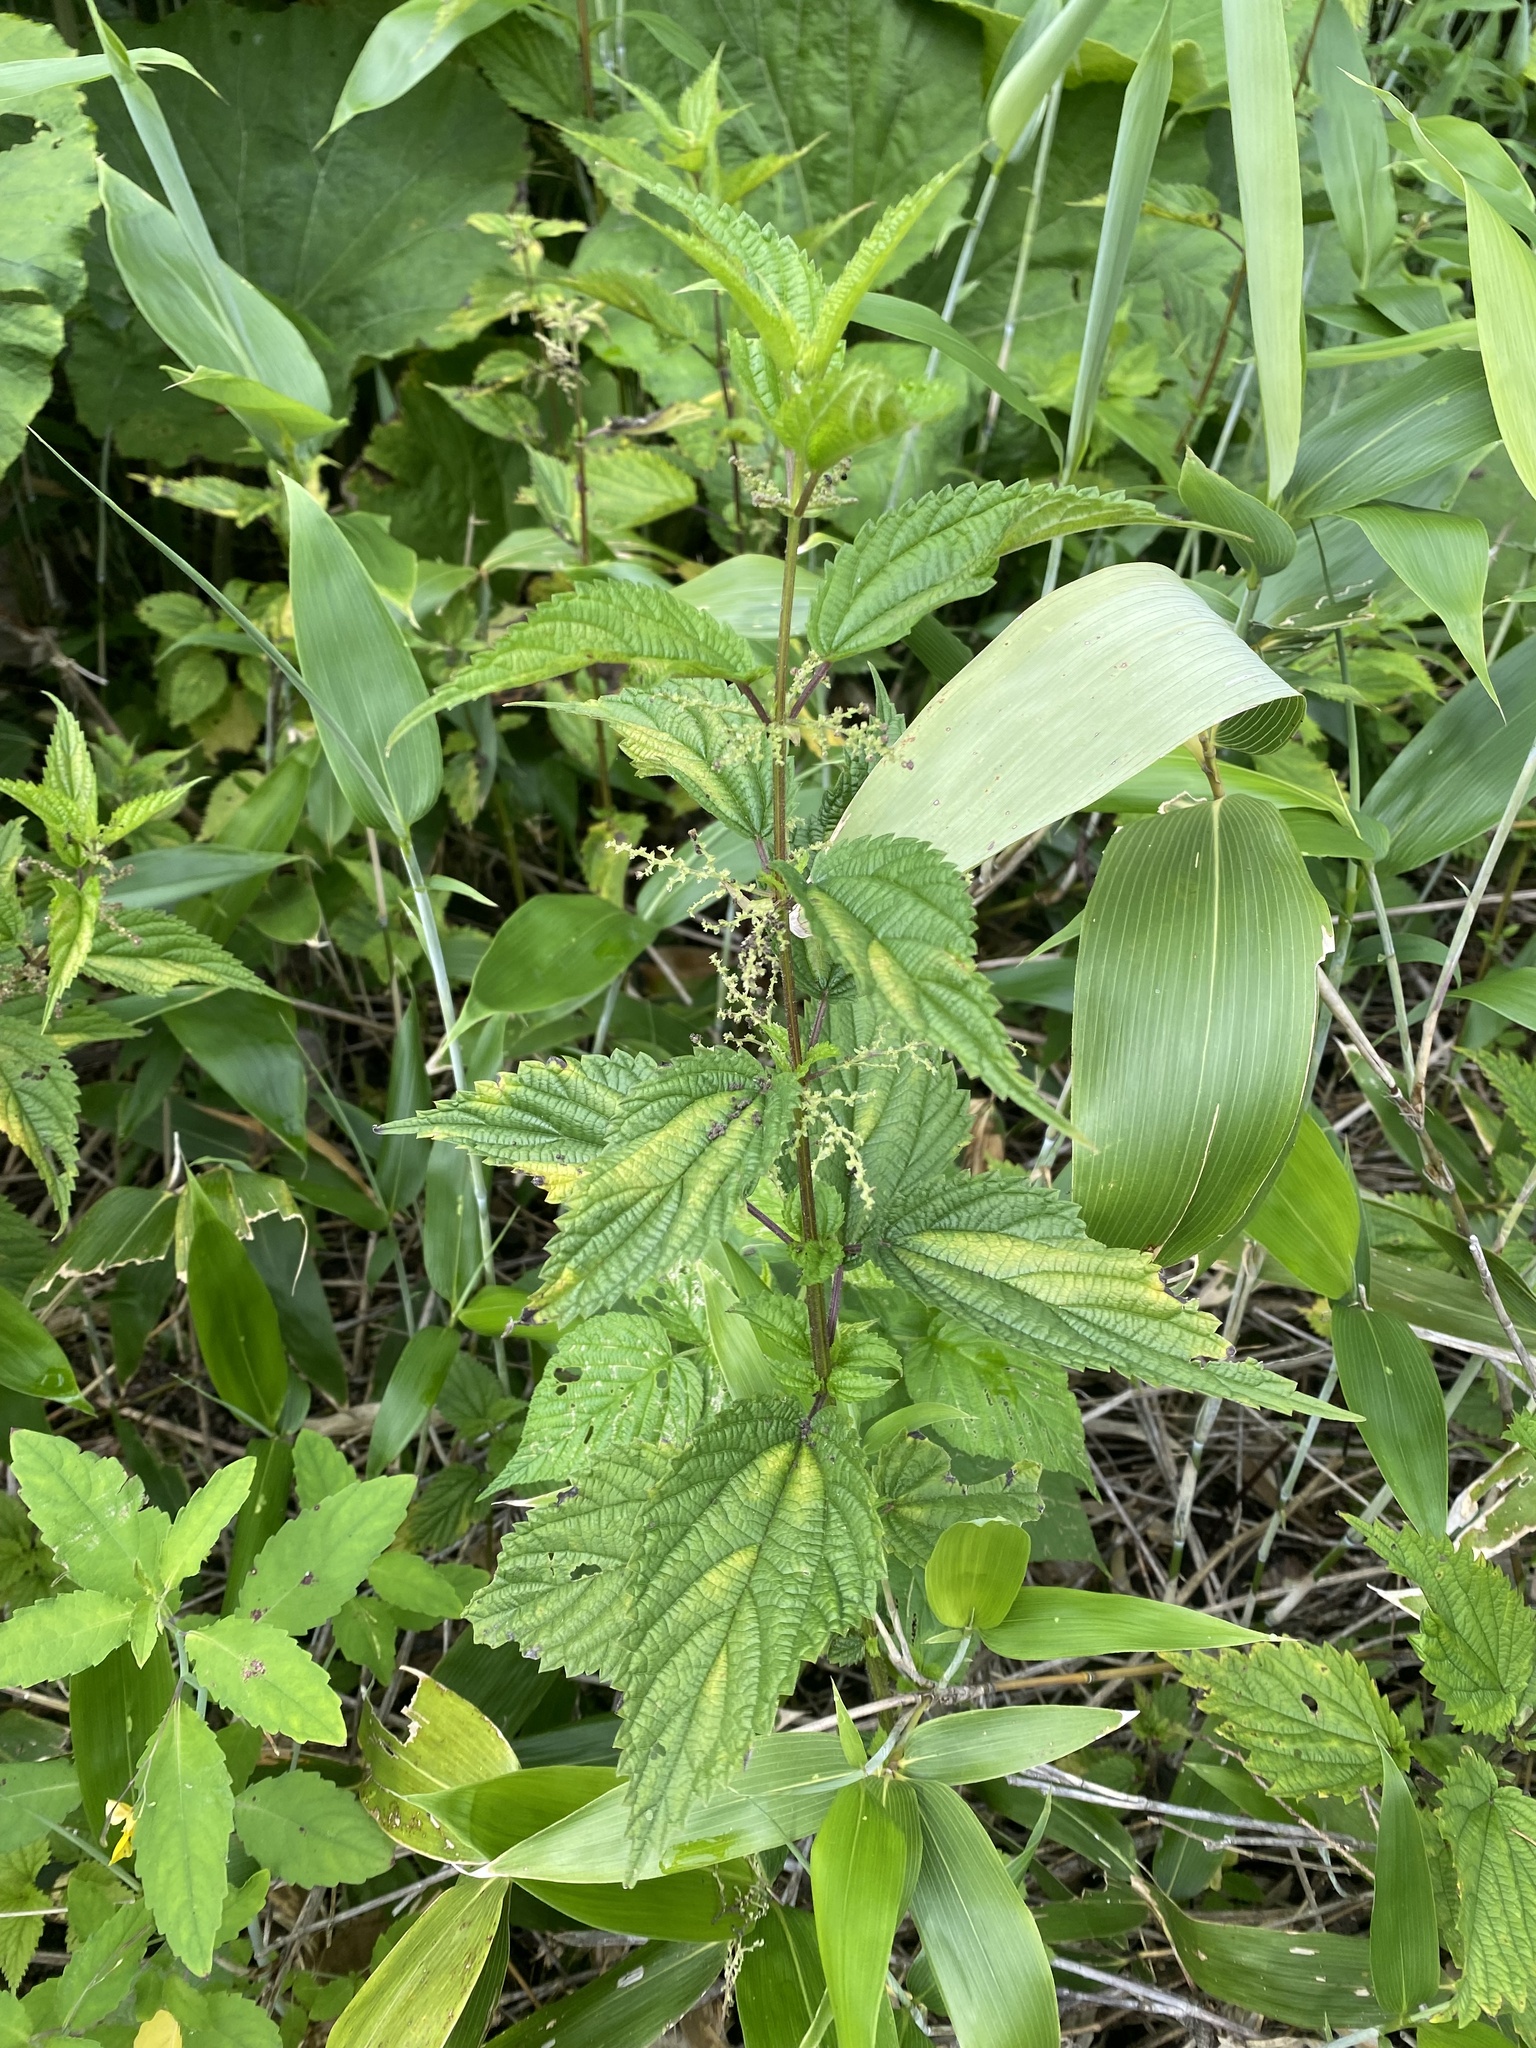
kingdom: Plantae
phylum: Tracheophyta
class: Magnoliopsida
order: Rosales
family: Urticaceae
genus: Urtica
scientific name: Urtica platyphylla
